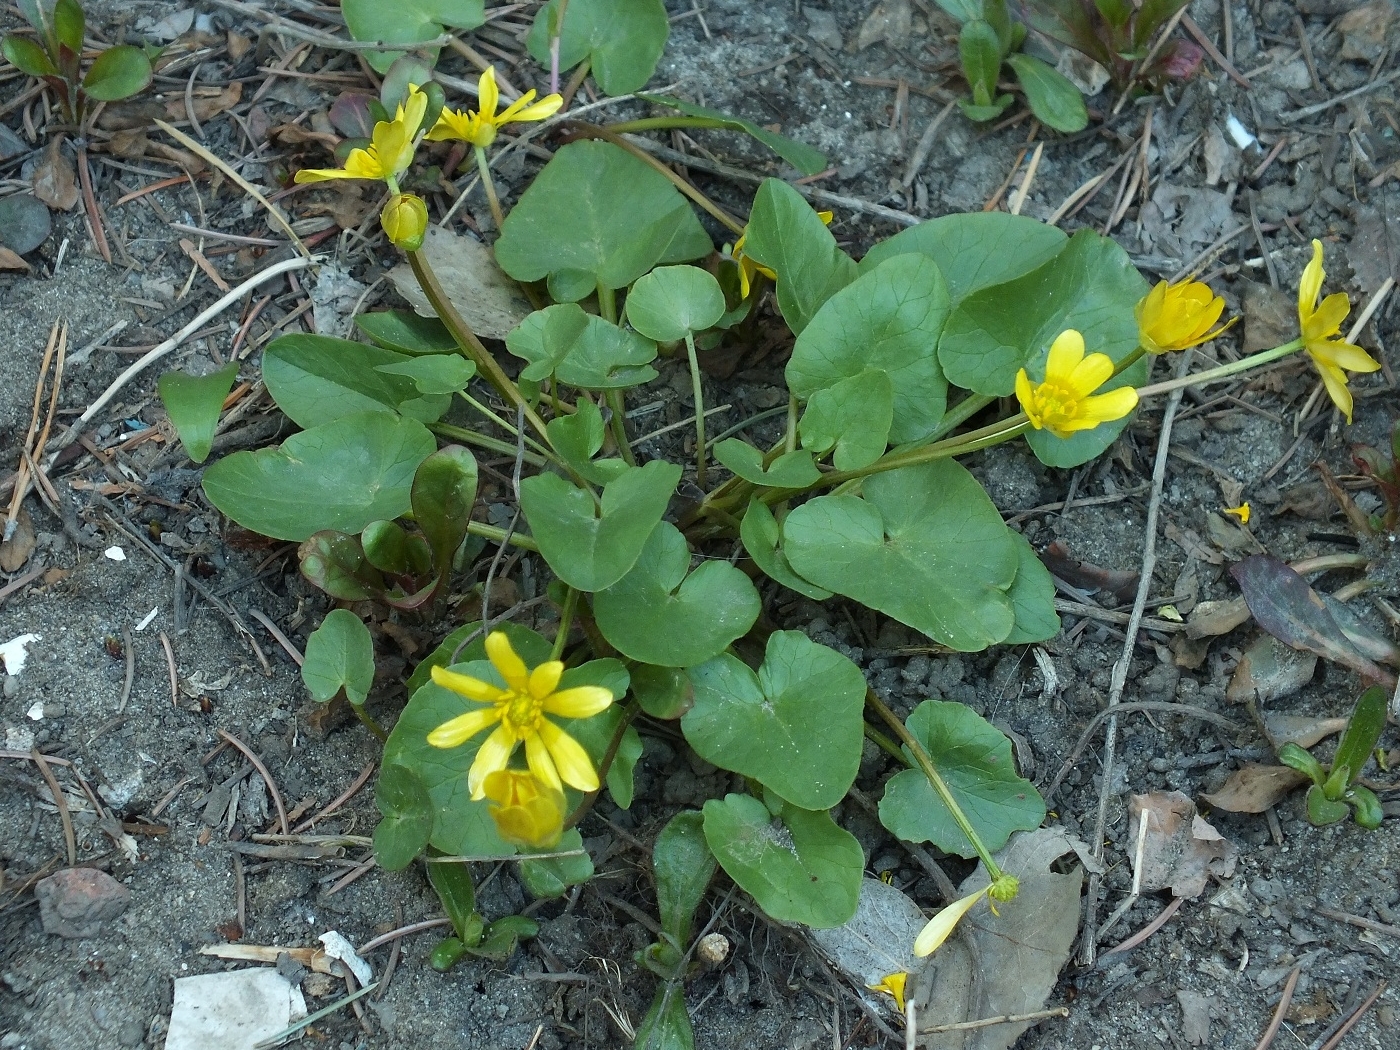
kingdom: Plantae
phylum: Tracheophyta
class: Magnoliopsida
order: Ranunculales
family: Ranunculaceae
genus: Ficaria
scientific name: Ficaria verna
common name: Lesser celandine
